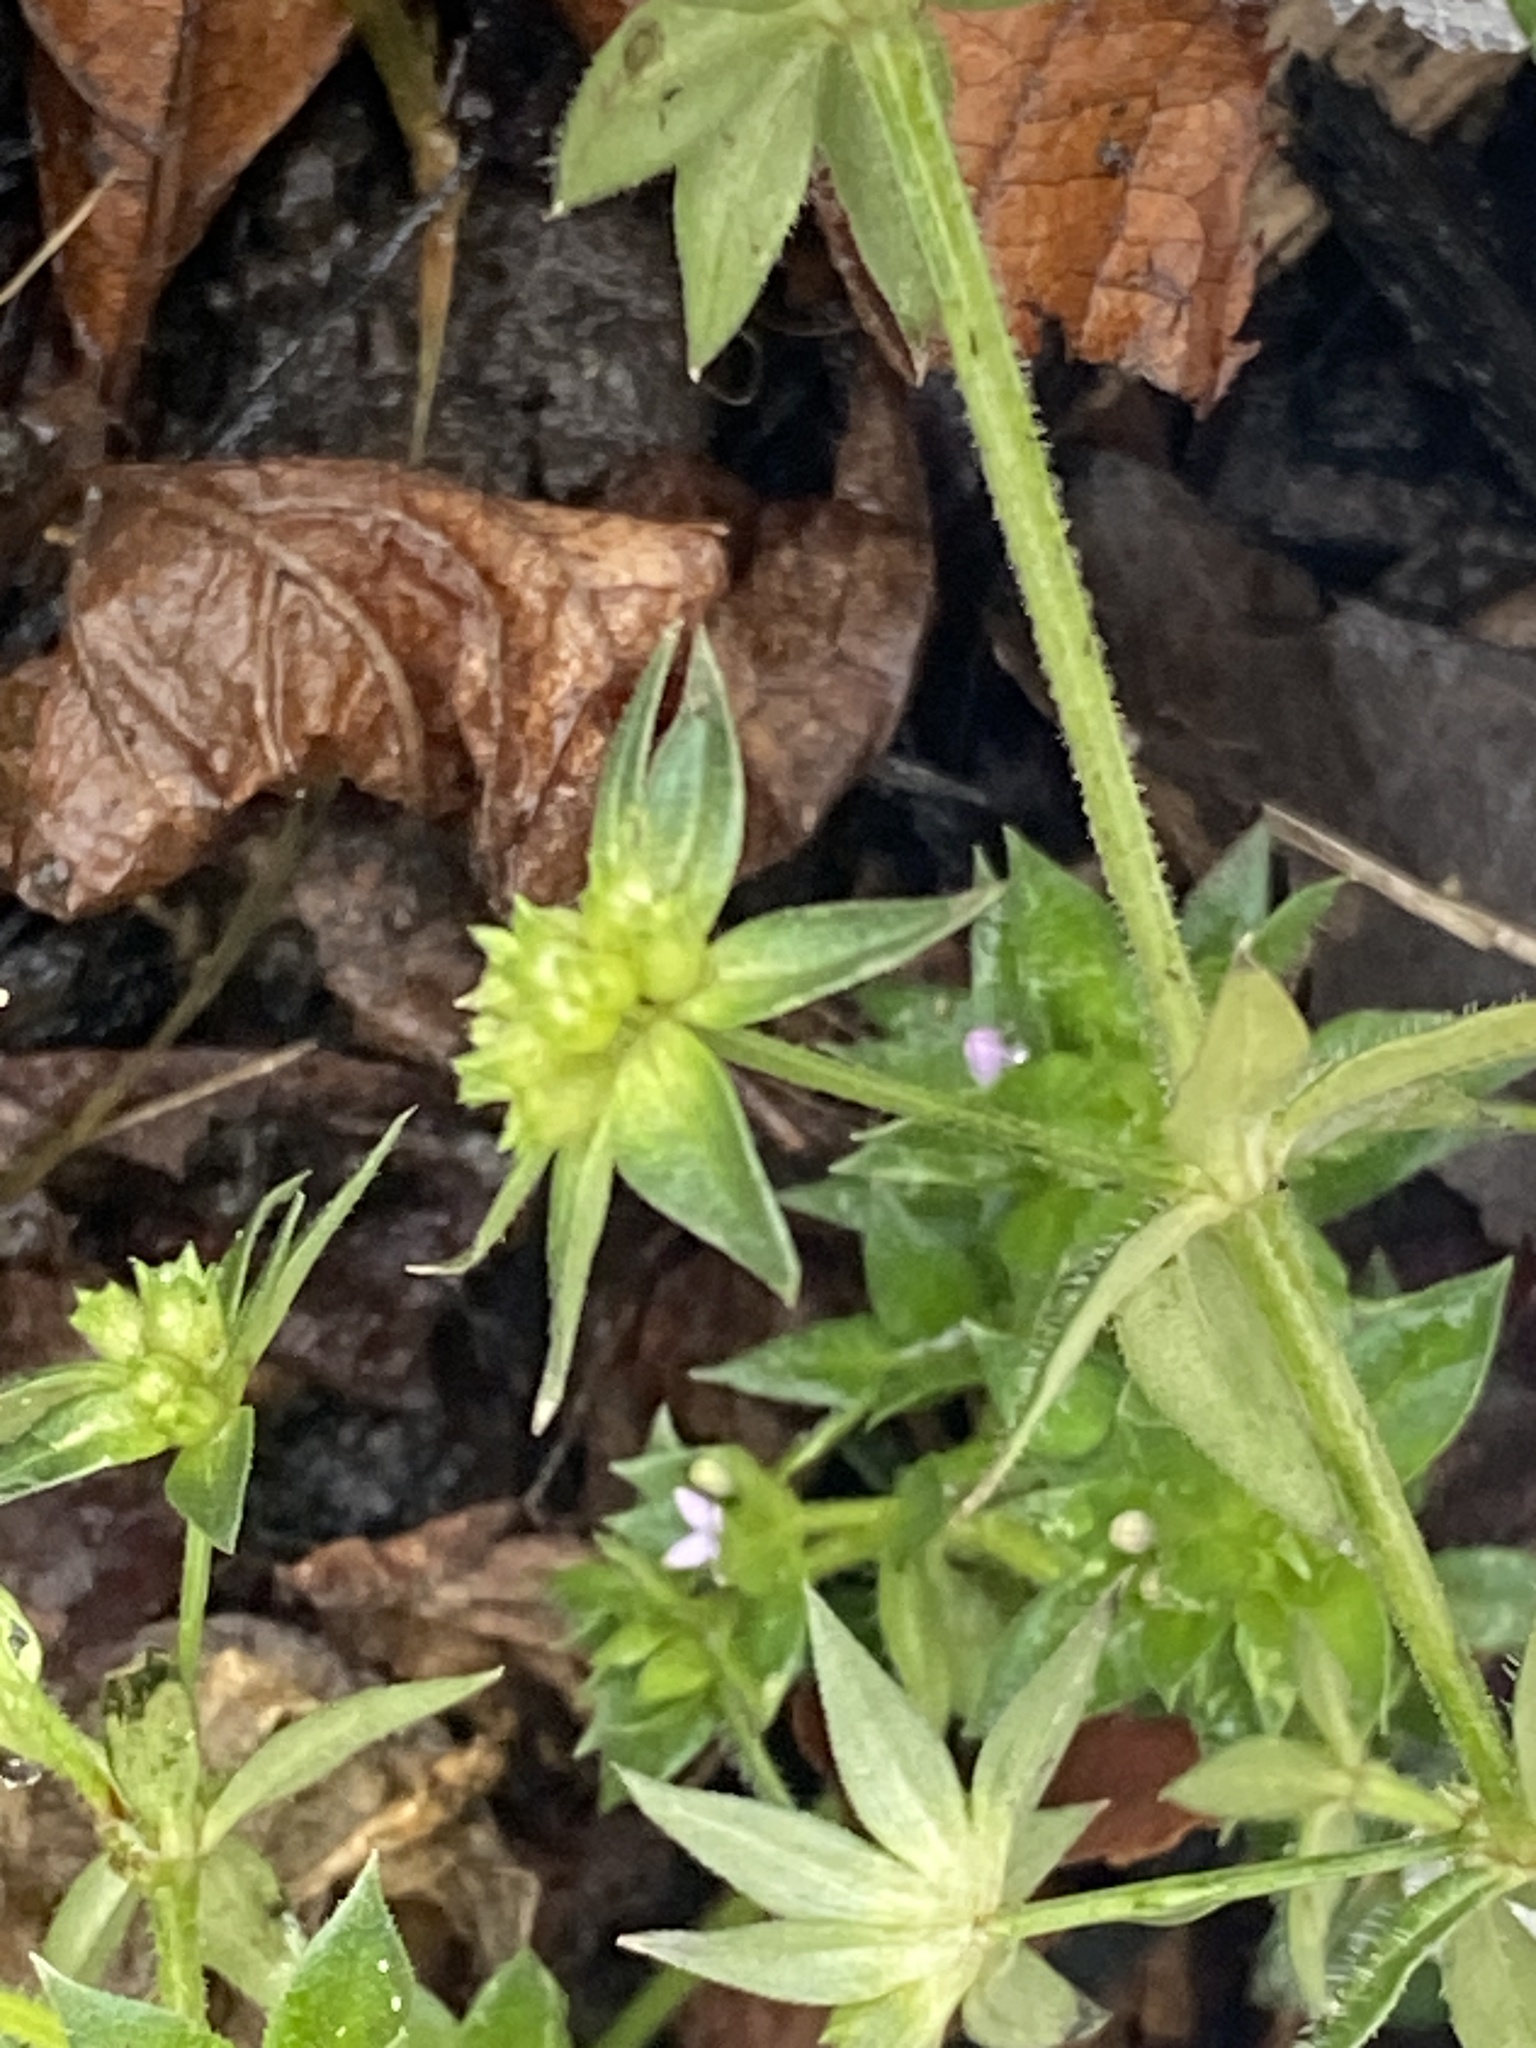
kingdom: Plantae
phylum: Tracheophyta
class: Magnoliopsida
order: Gentianales
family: Rubiaceae
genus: Sherardia
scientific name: Sherardia arvensis
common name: Field madder
